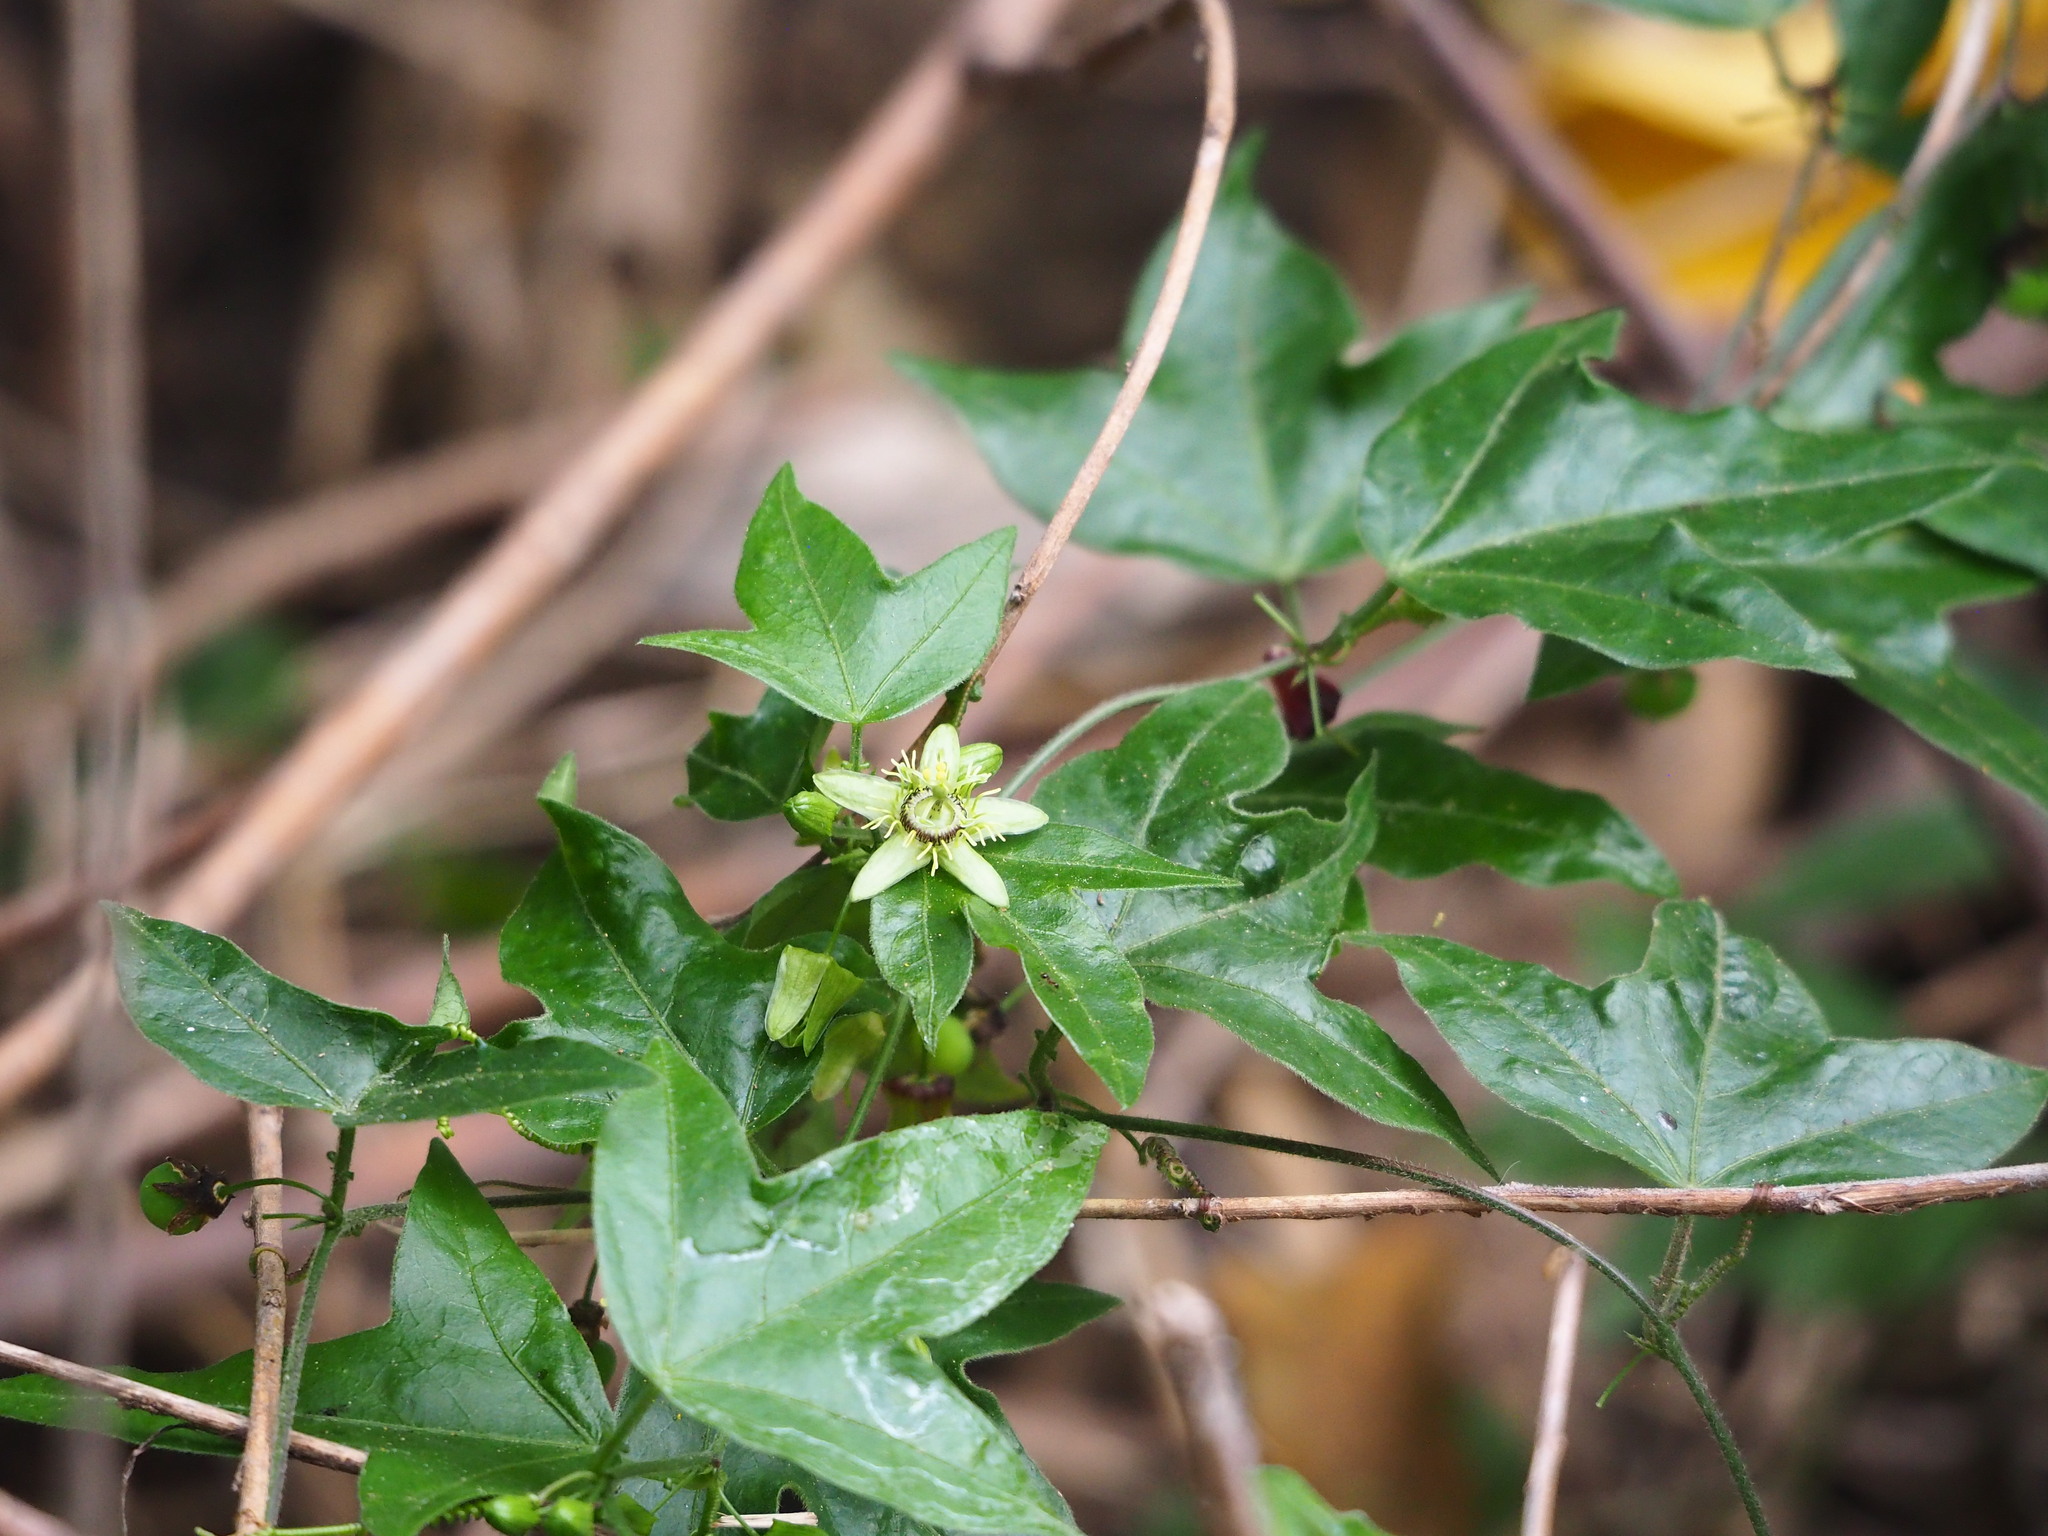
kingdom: Plantae
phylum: Tracheophyta
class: Magnoliopsida
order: Malpighiales
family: Passifloraceae
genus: Passiflora
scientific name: Passiflora suberosa
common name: Wild passionfruit
